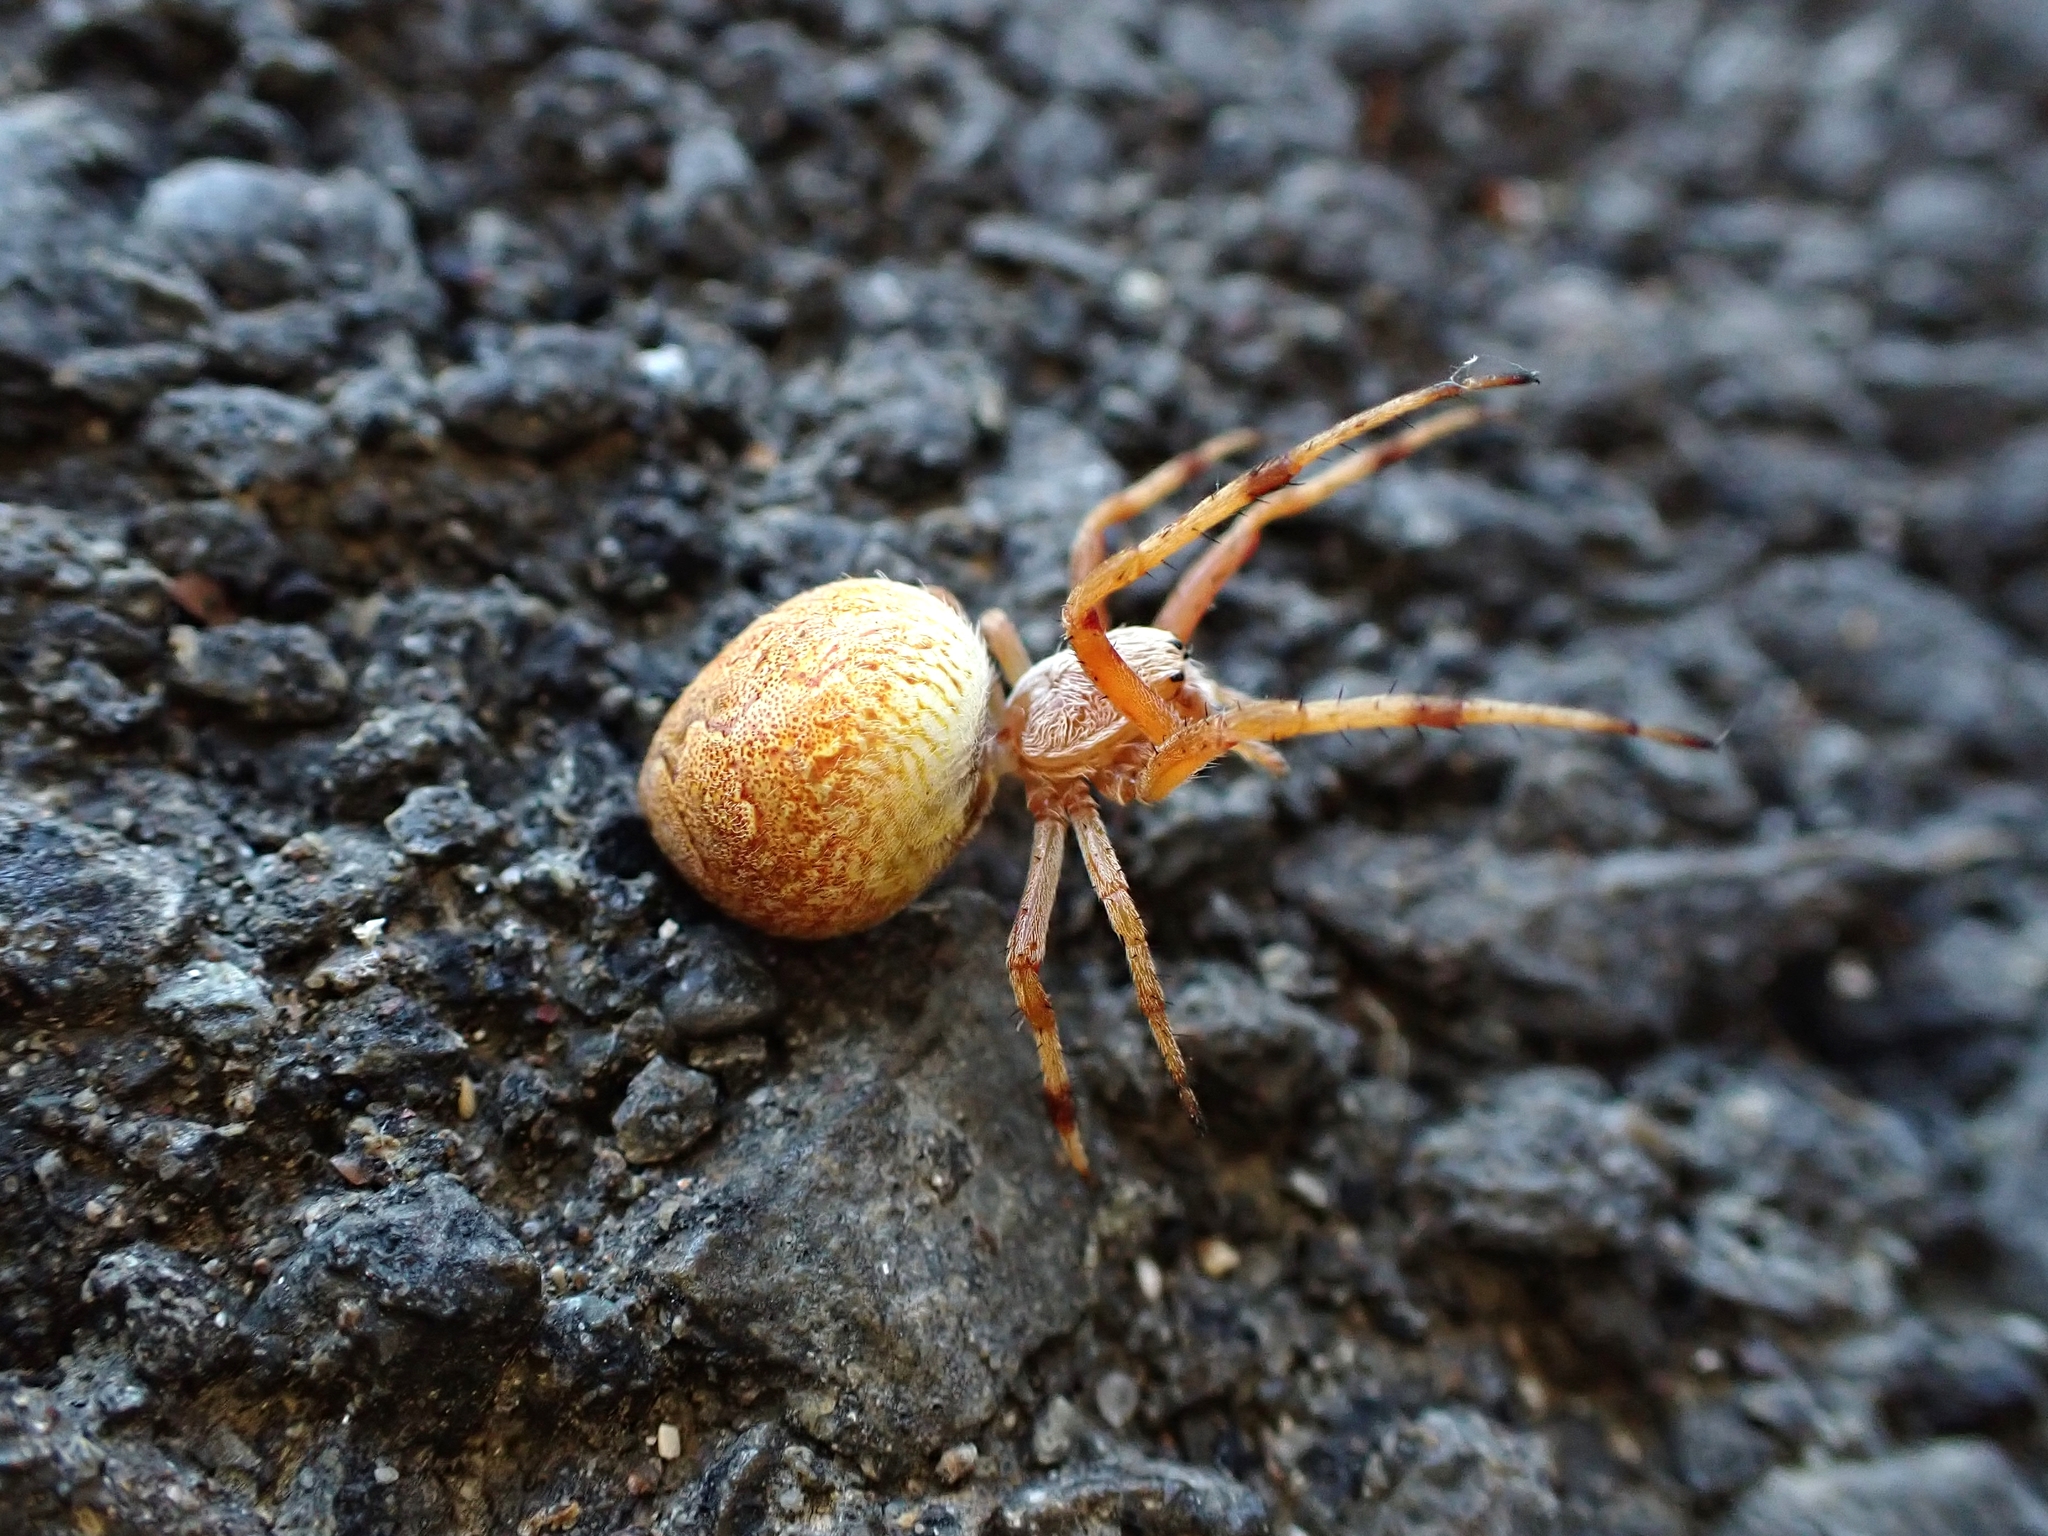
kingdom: Animalia
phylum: Arthropoda
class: Arachnida
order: Araneae
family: Araneidae
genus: Salsa
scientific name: Salsa fuliginata
